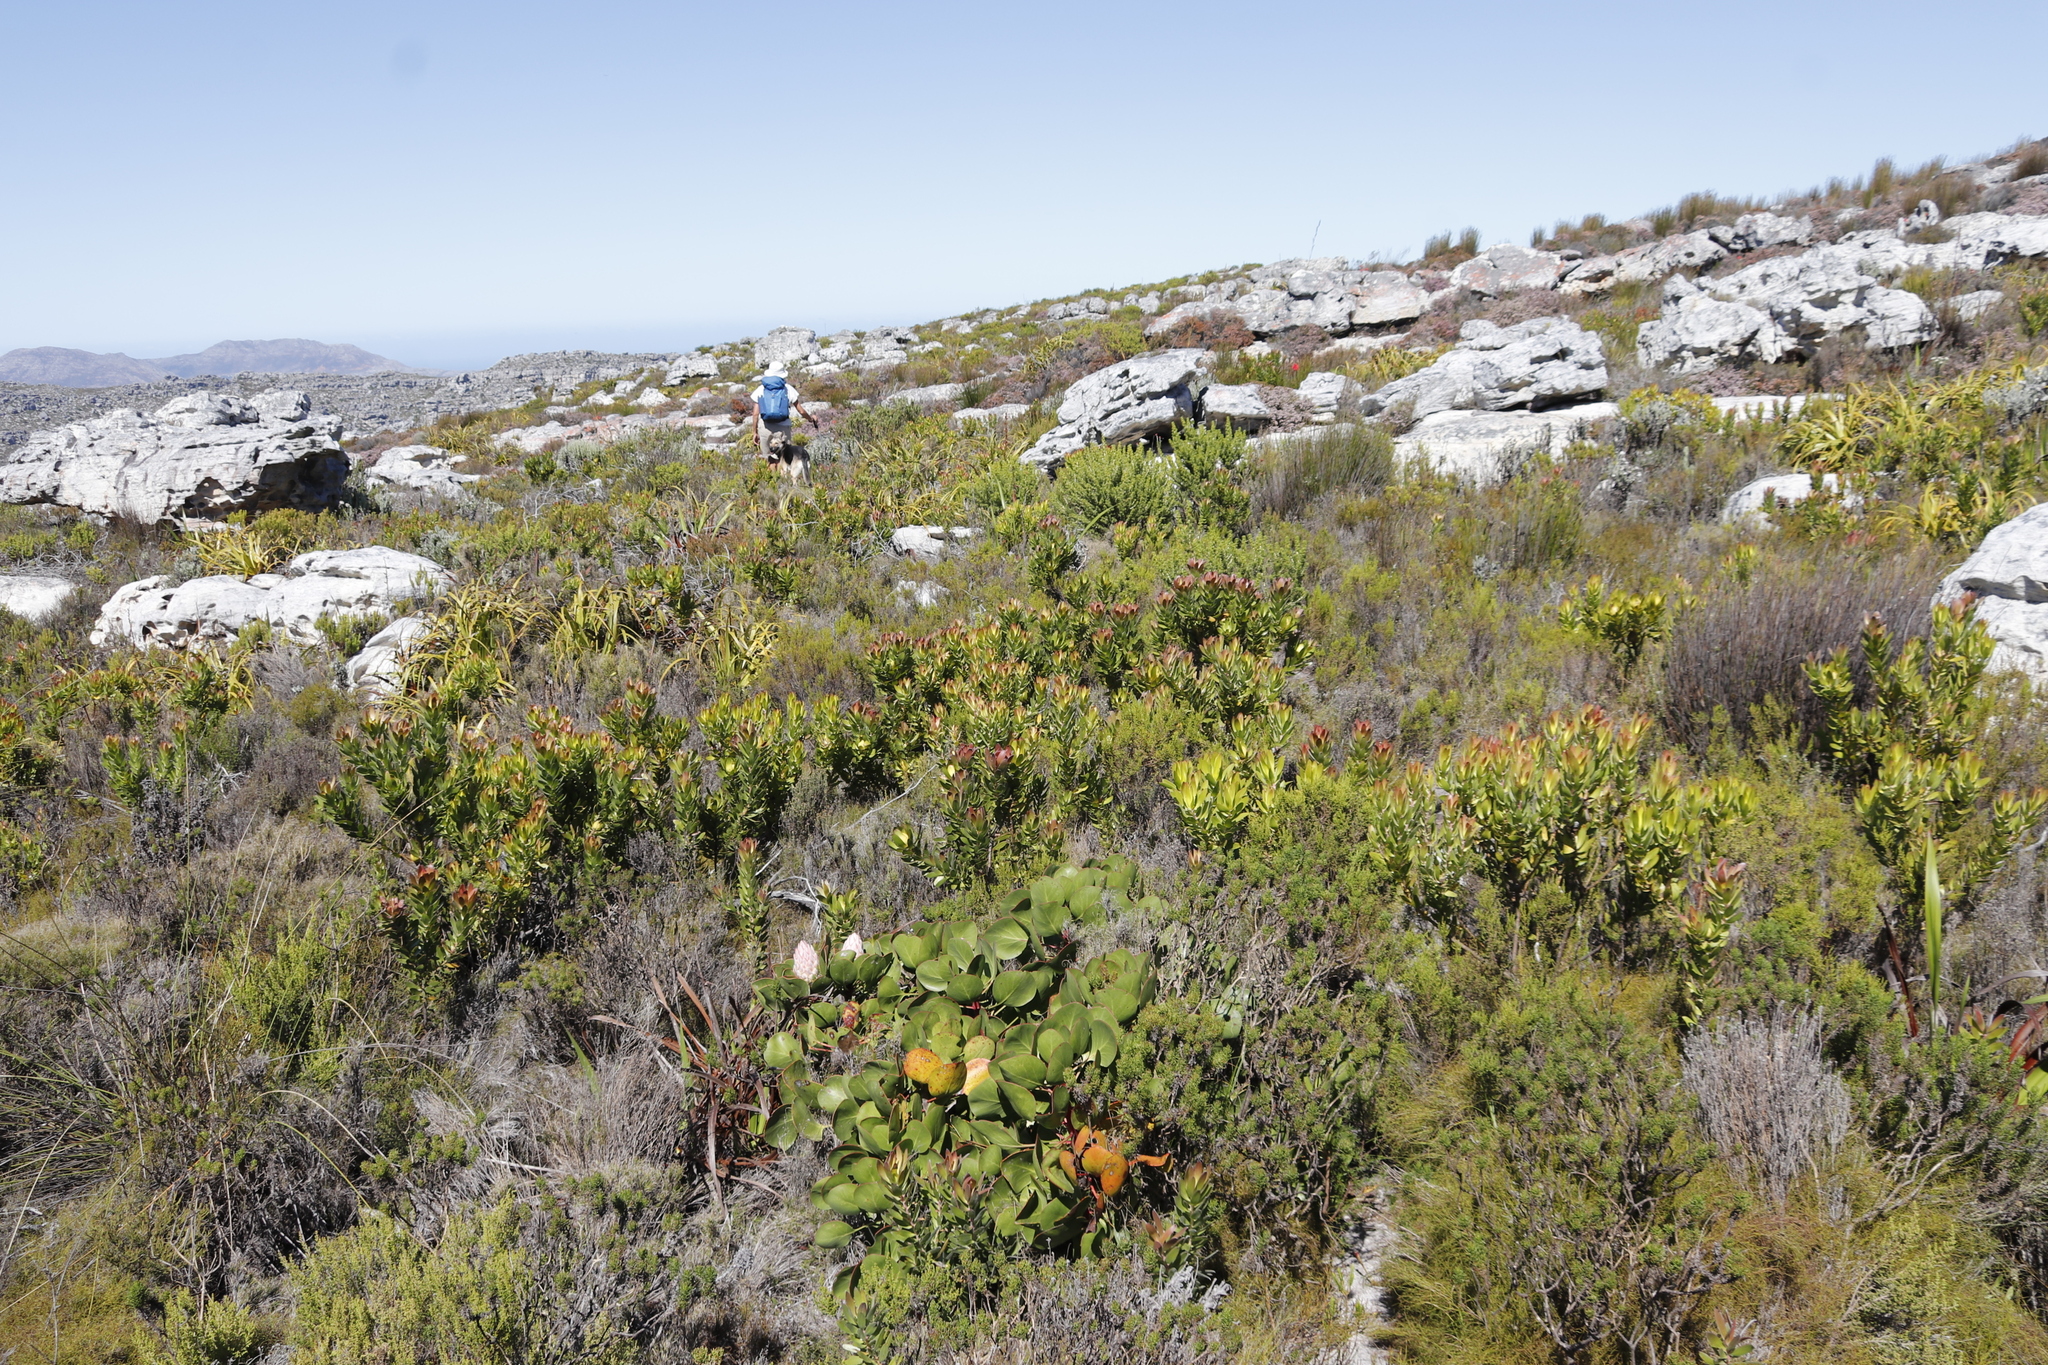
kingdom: Plantae
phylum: Tracheophyta
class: Magnoliopsida
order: Proteales
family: Proteaceae
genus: Leucadendron
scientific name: Leucadendron laureolum
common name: Golden sunshinebush
